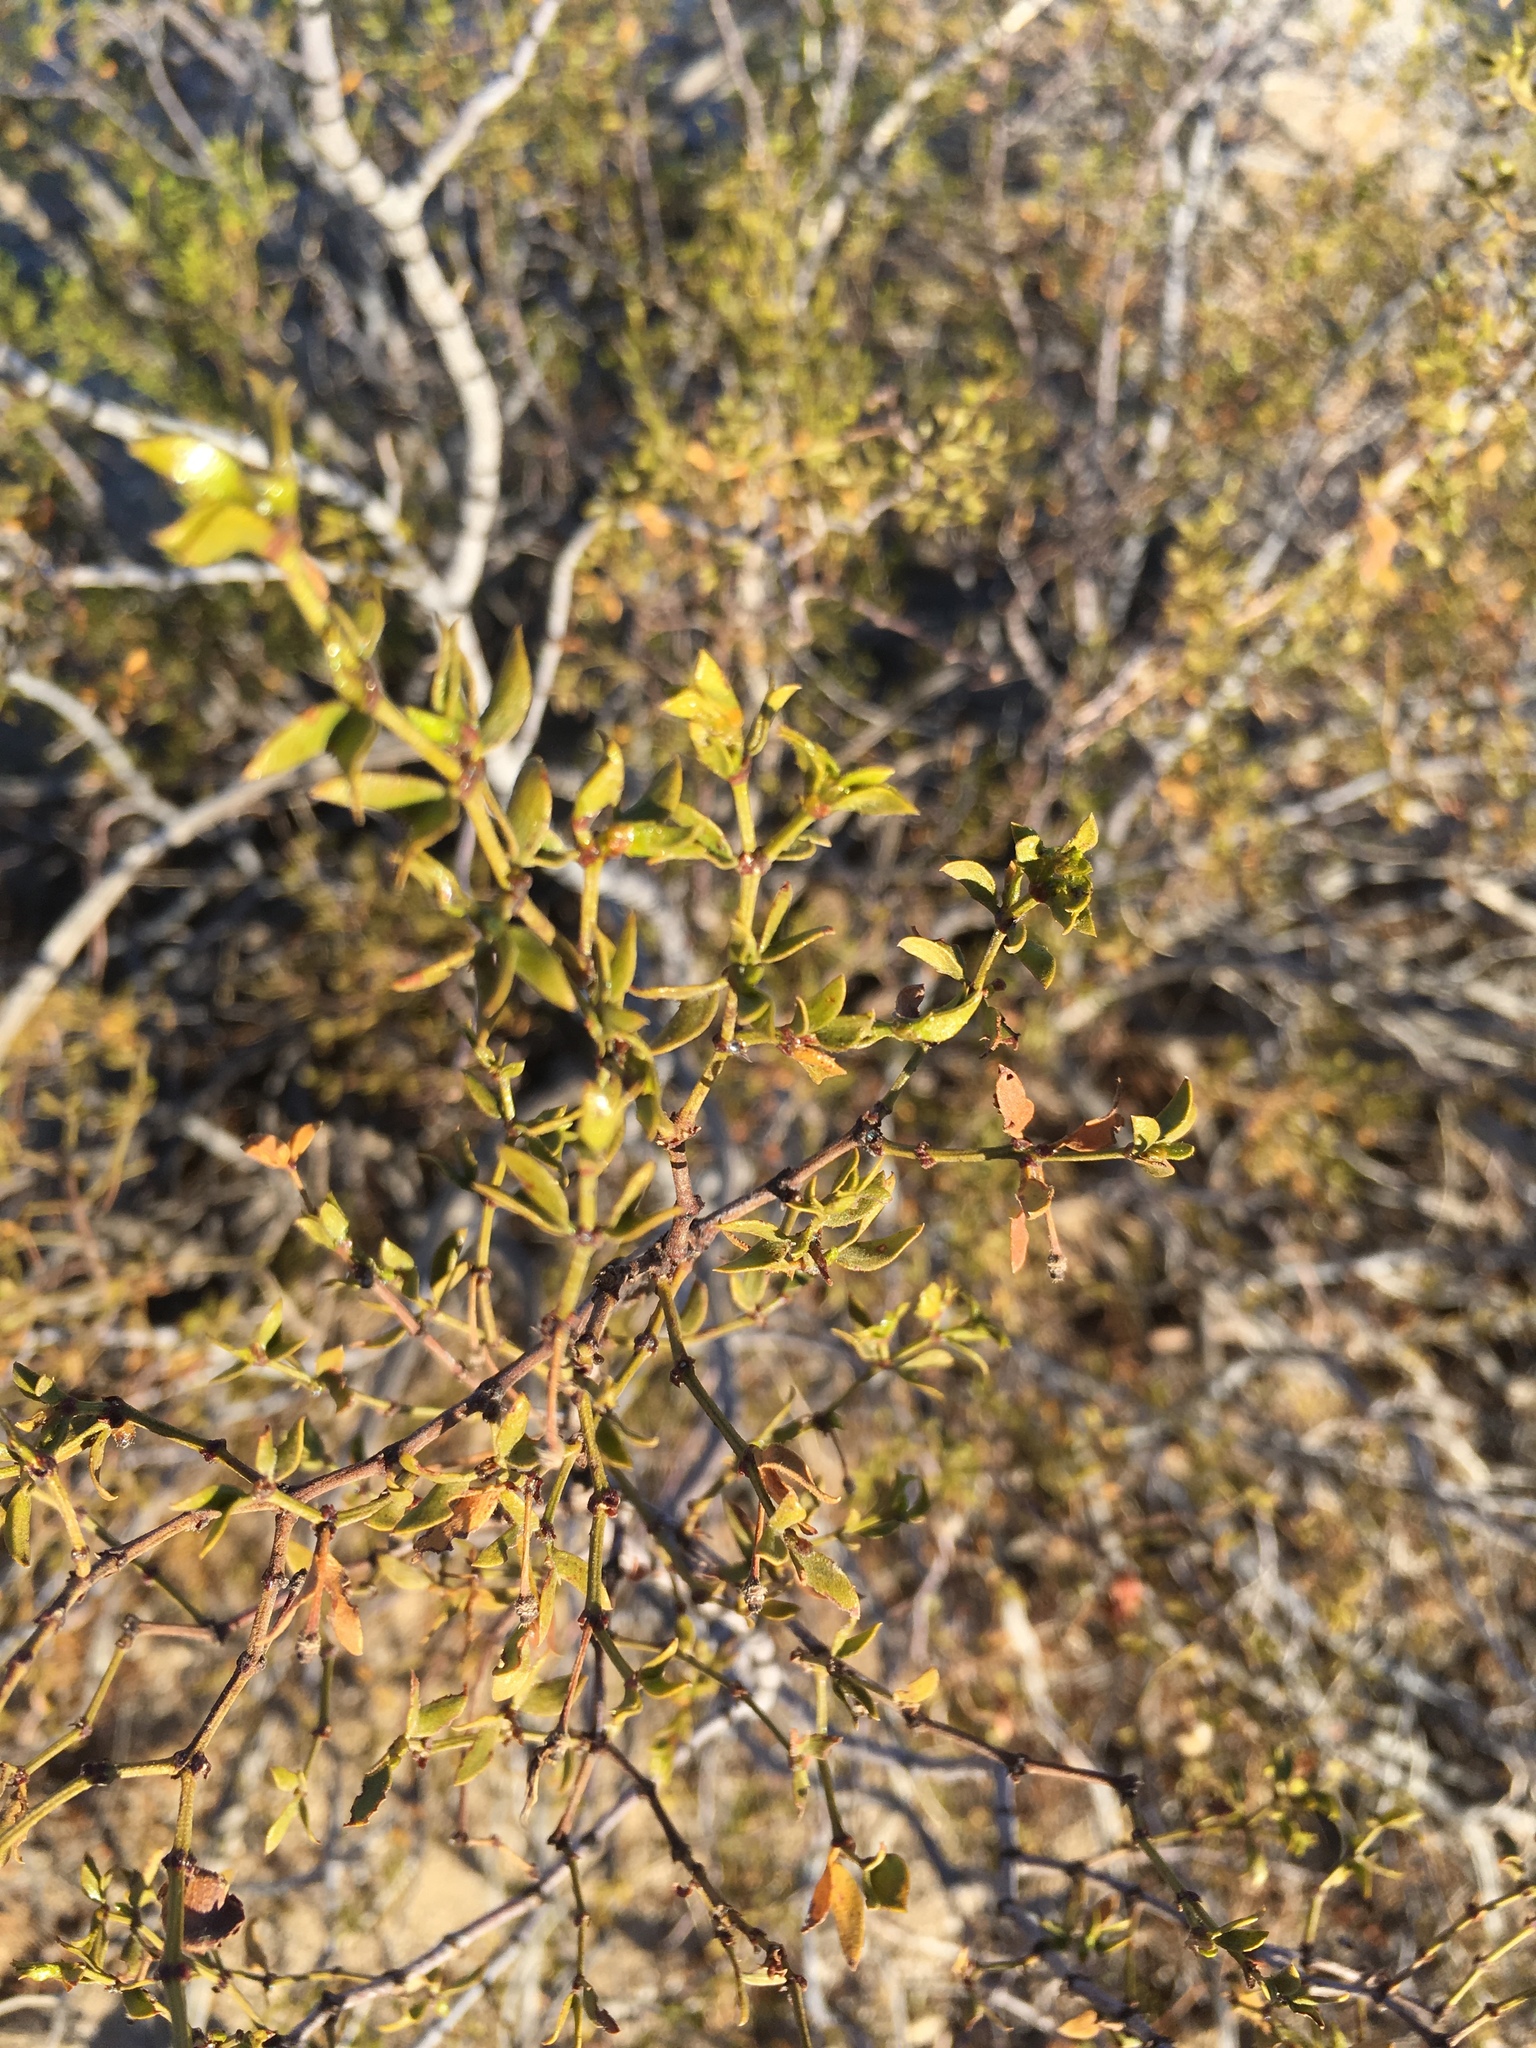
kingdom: Plantae
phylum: Tracheophyta
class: Magnoliopsida
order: Zygophyllales
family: Zygophyllaceae
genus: Larrea
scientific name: Larrea tridentata
